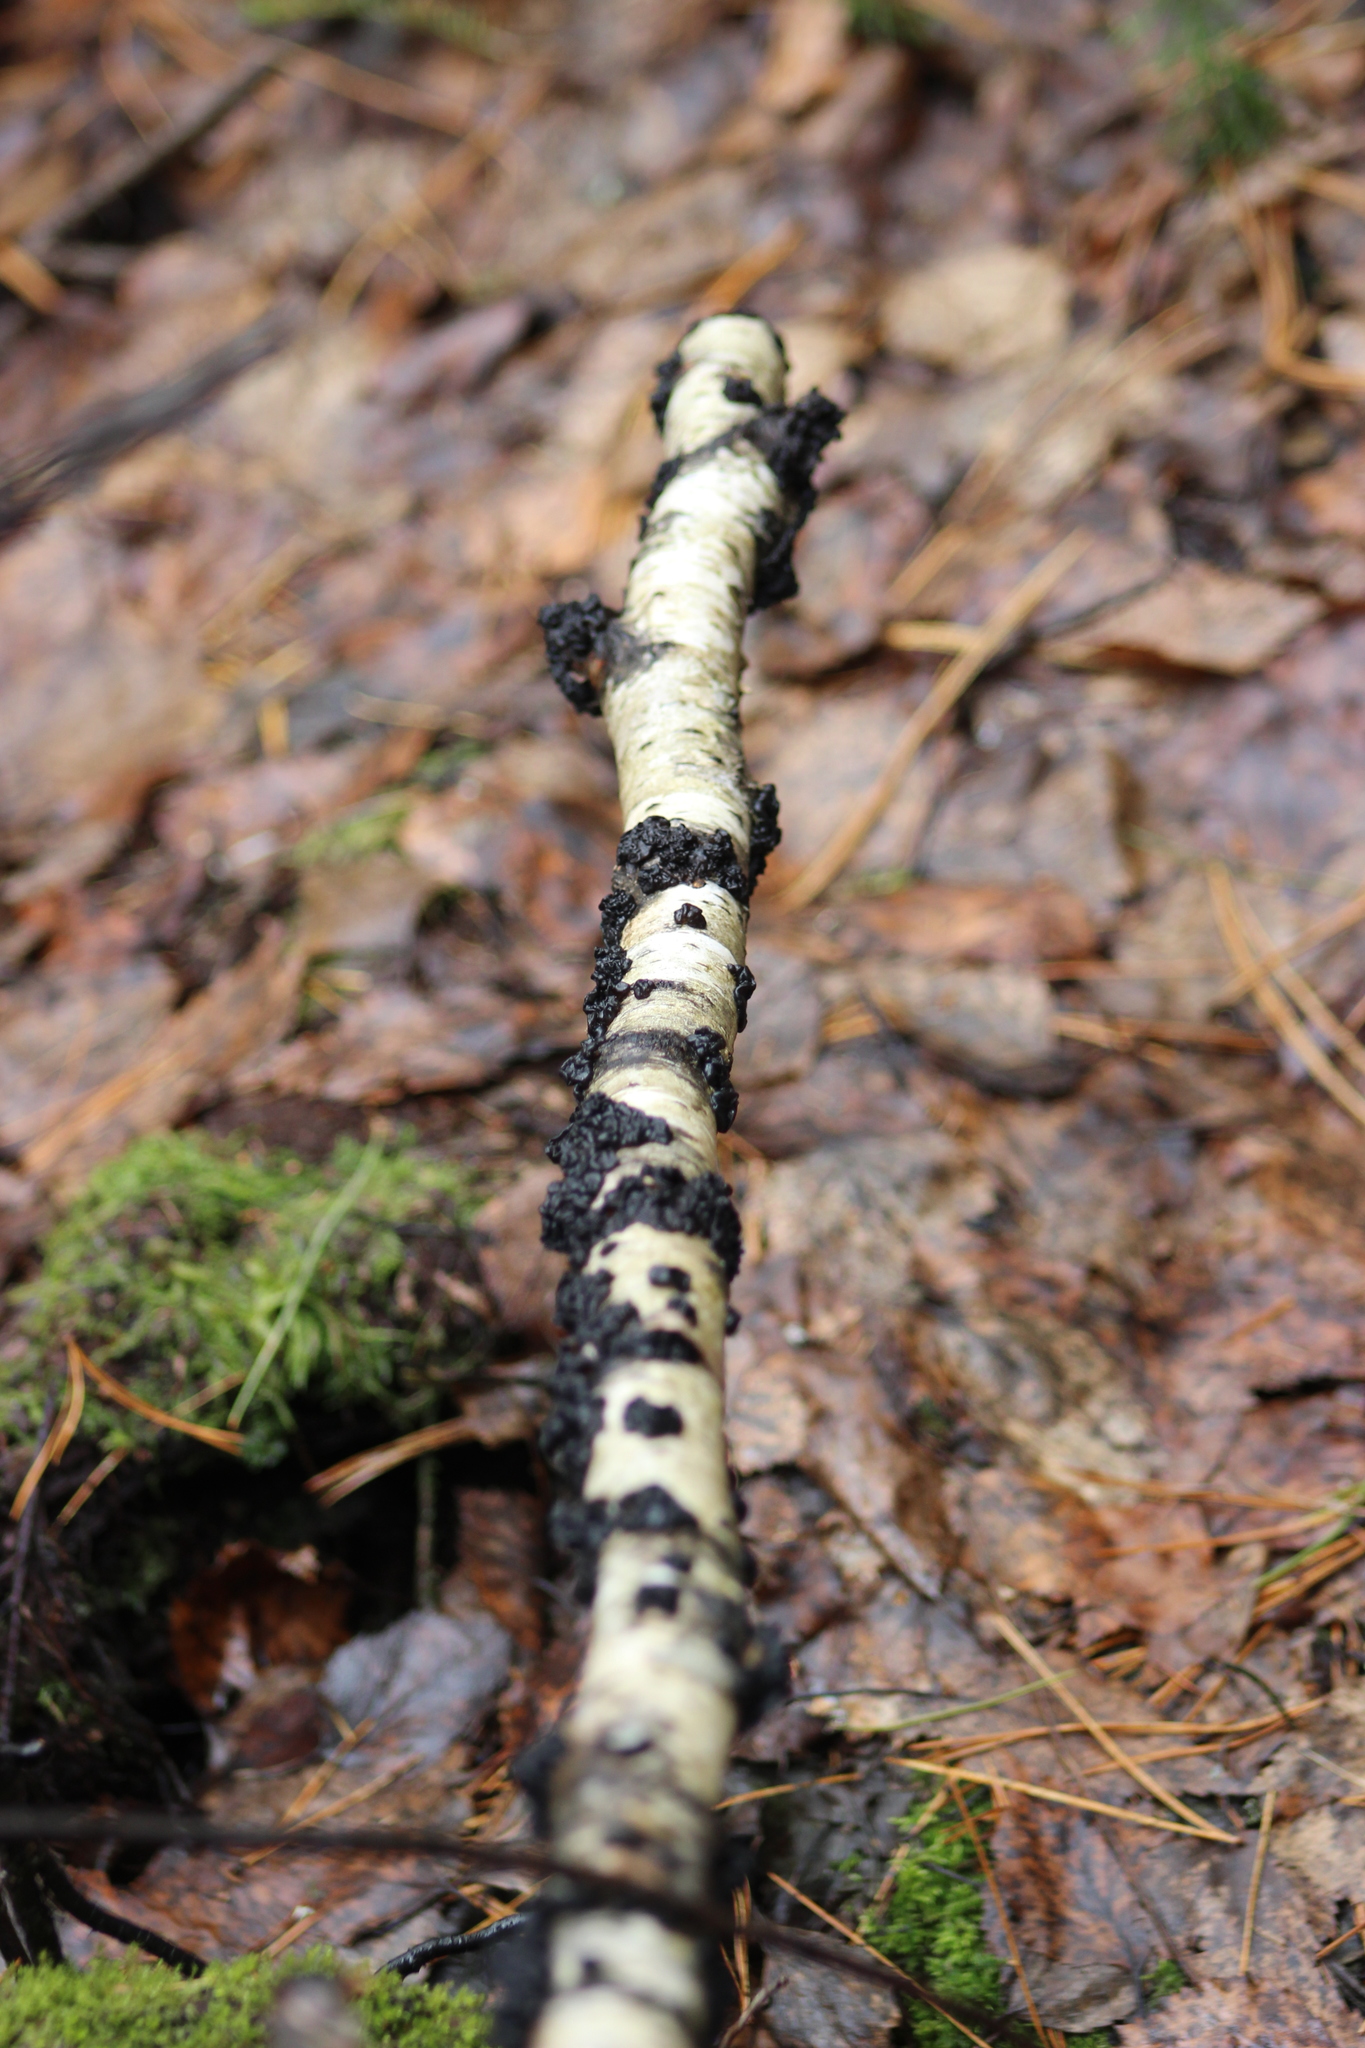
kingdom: Fungi
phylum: Basidiomycota
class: Agaricomycetes
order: Auriculariales
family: Auriculariaceae
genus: Exidia
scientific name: Exidia glandulosa
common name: Witches' butter
